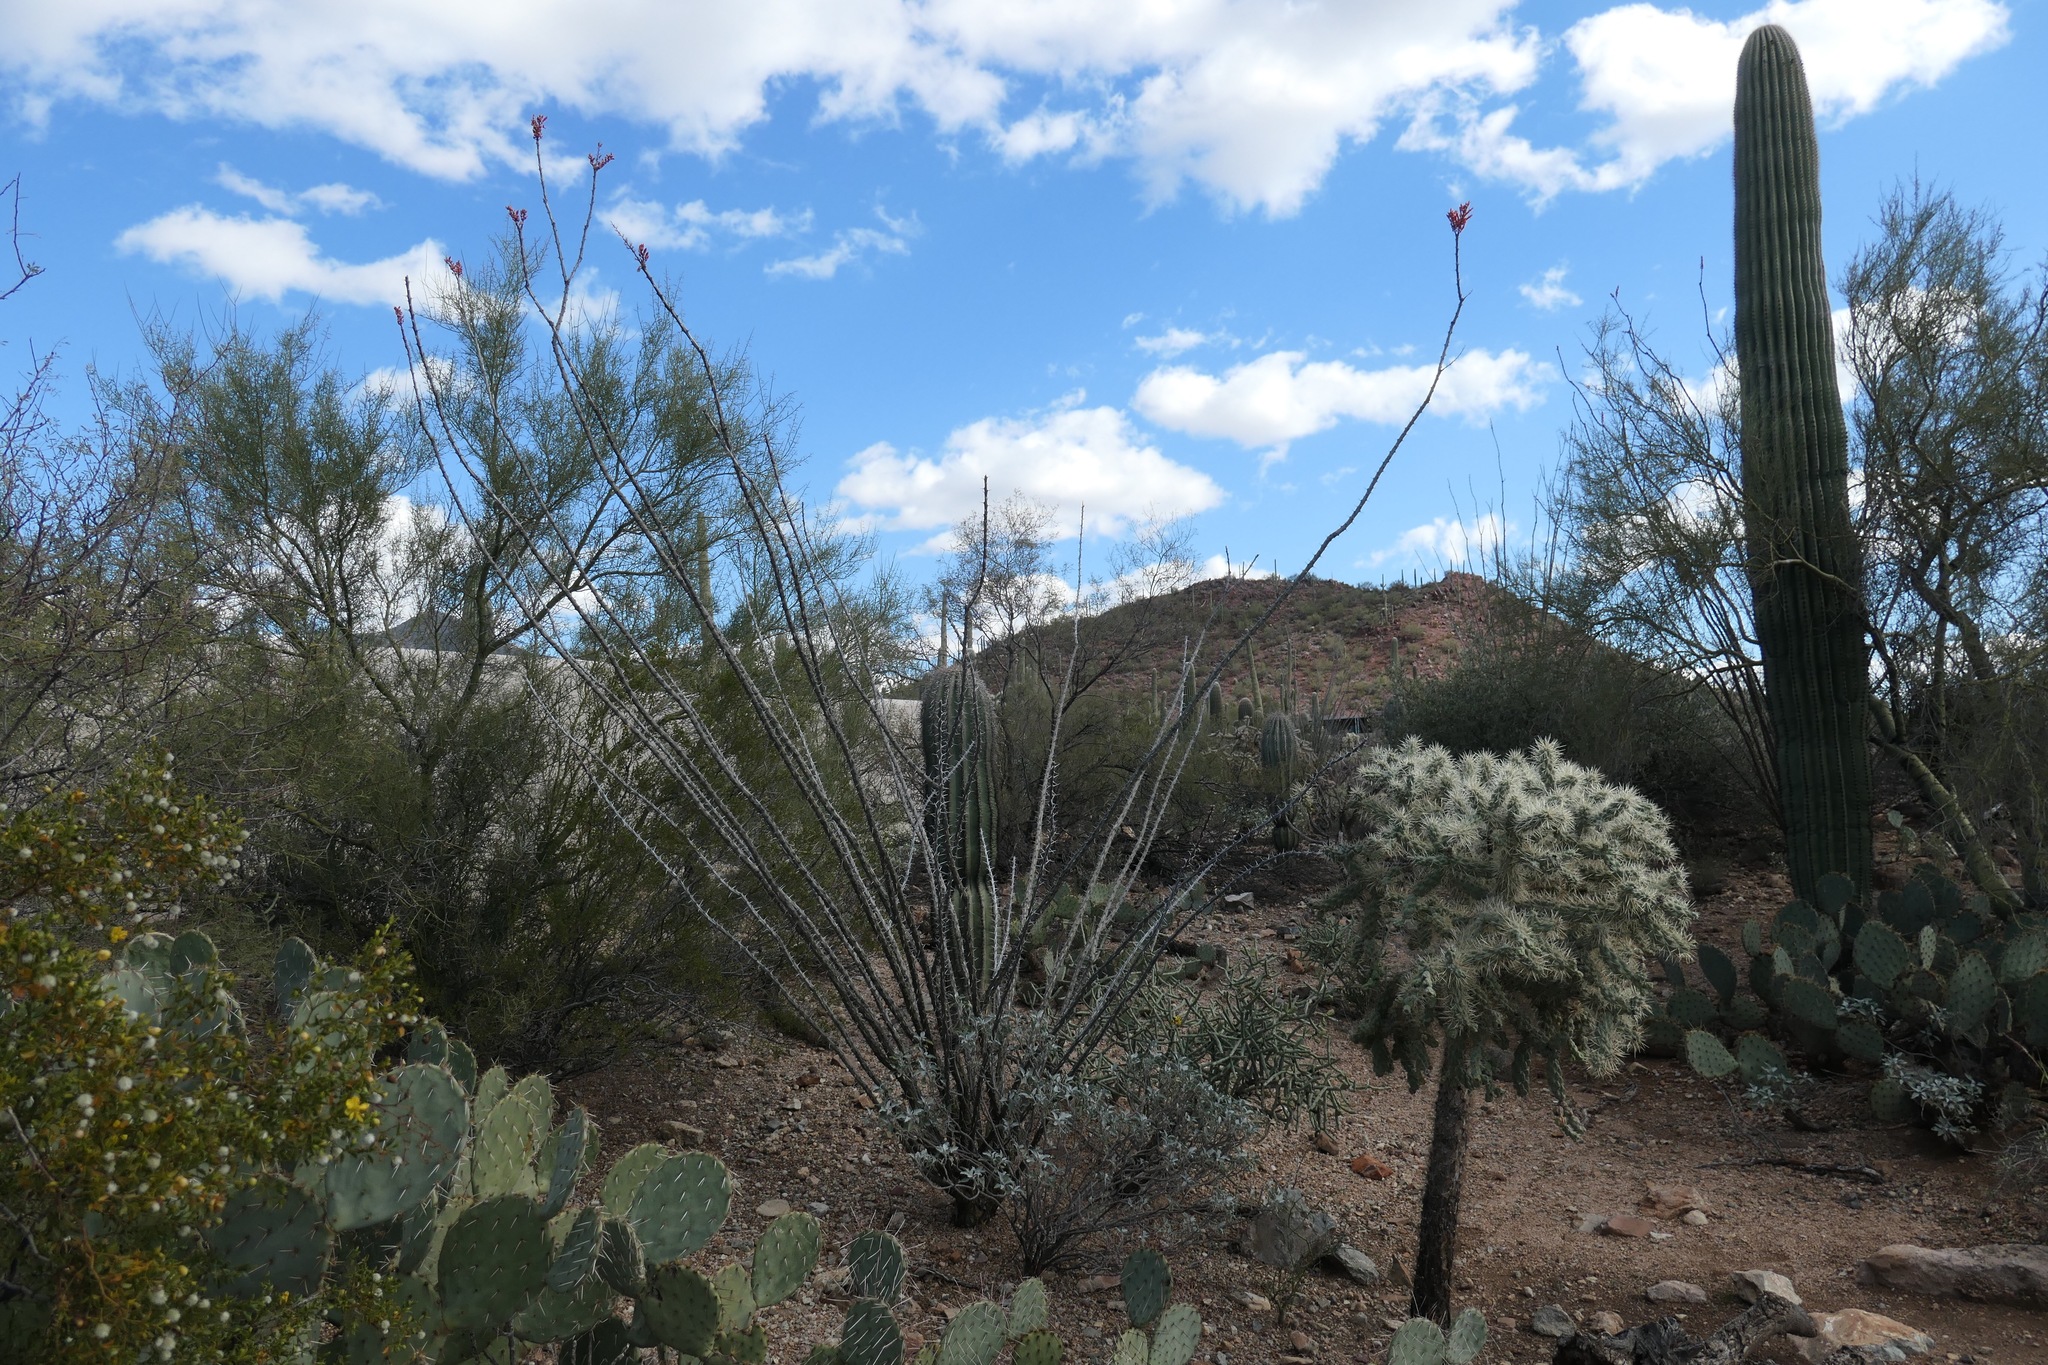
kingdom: Plantae
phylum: Tracheophyta
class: Magnoliopsida
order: Ericales
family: Fouquieriaceae
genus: Fouquieria
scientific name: Fouquieria splendens
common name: Vine-cactus
